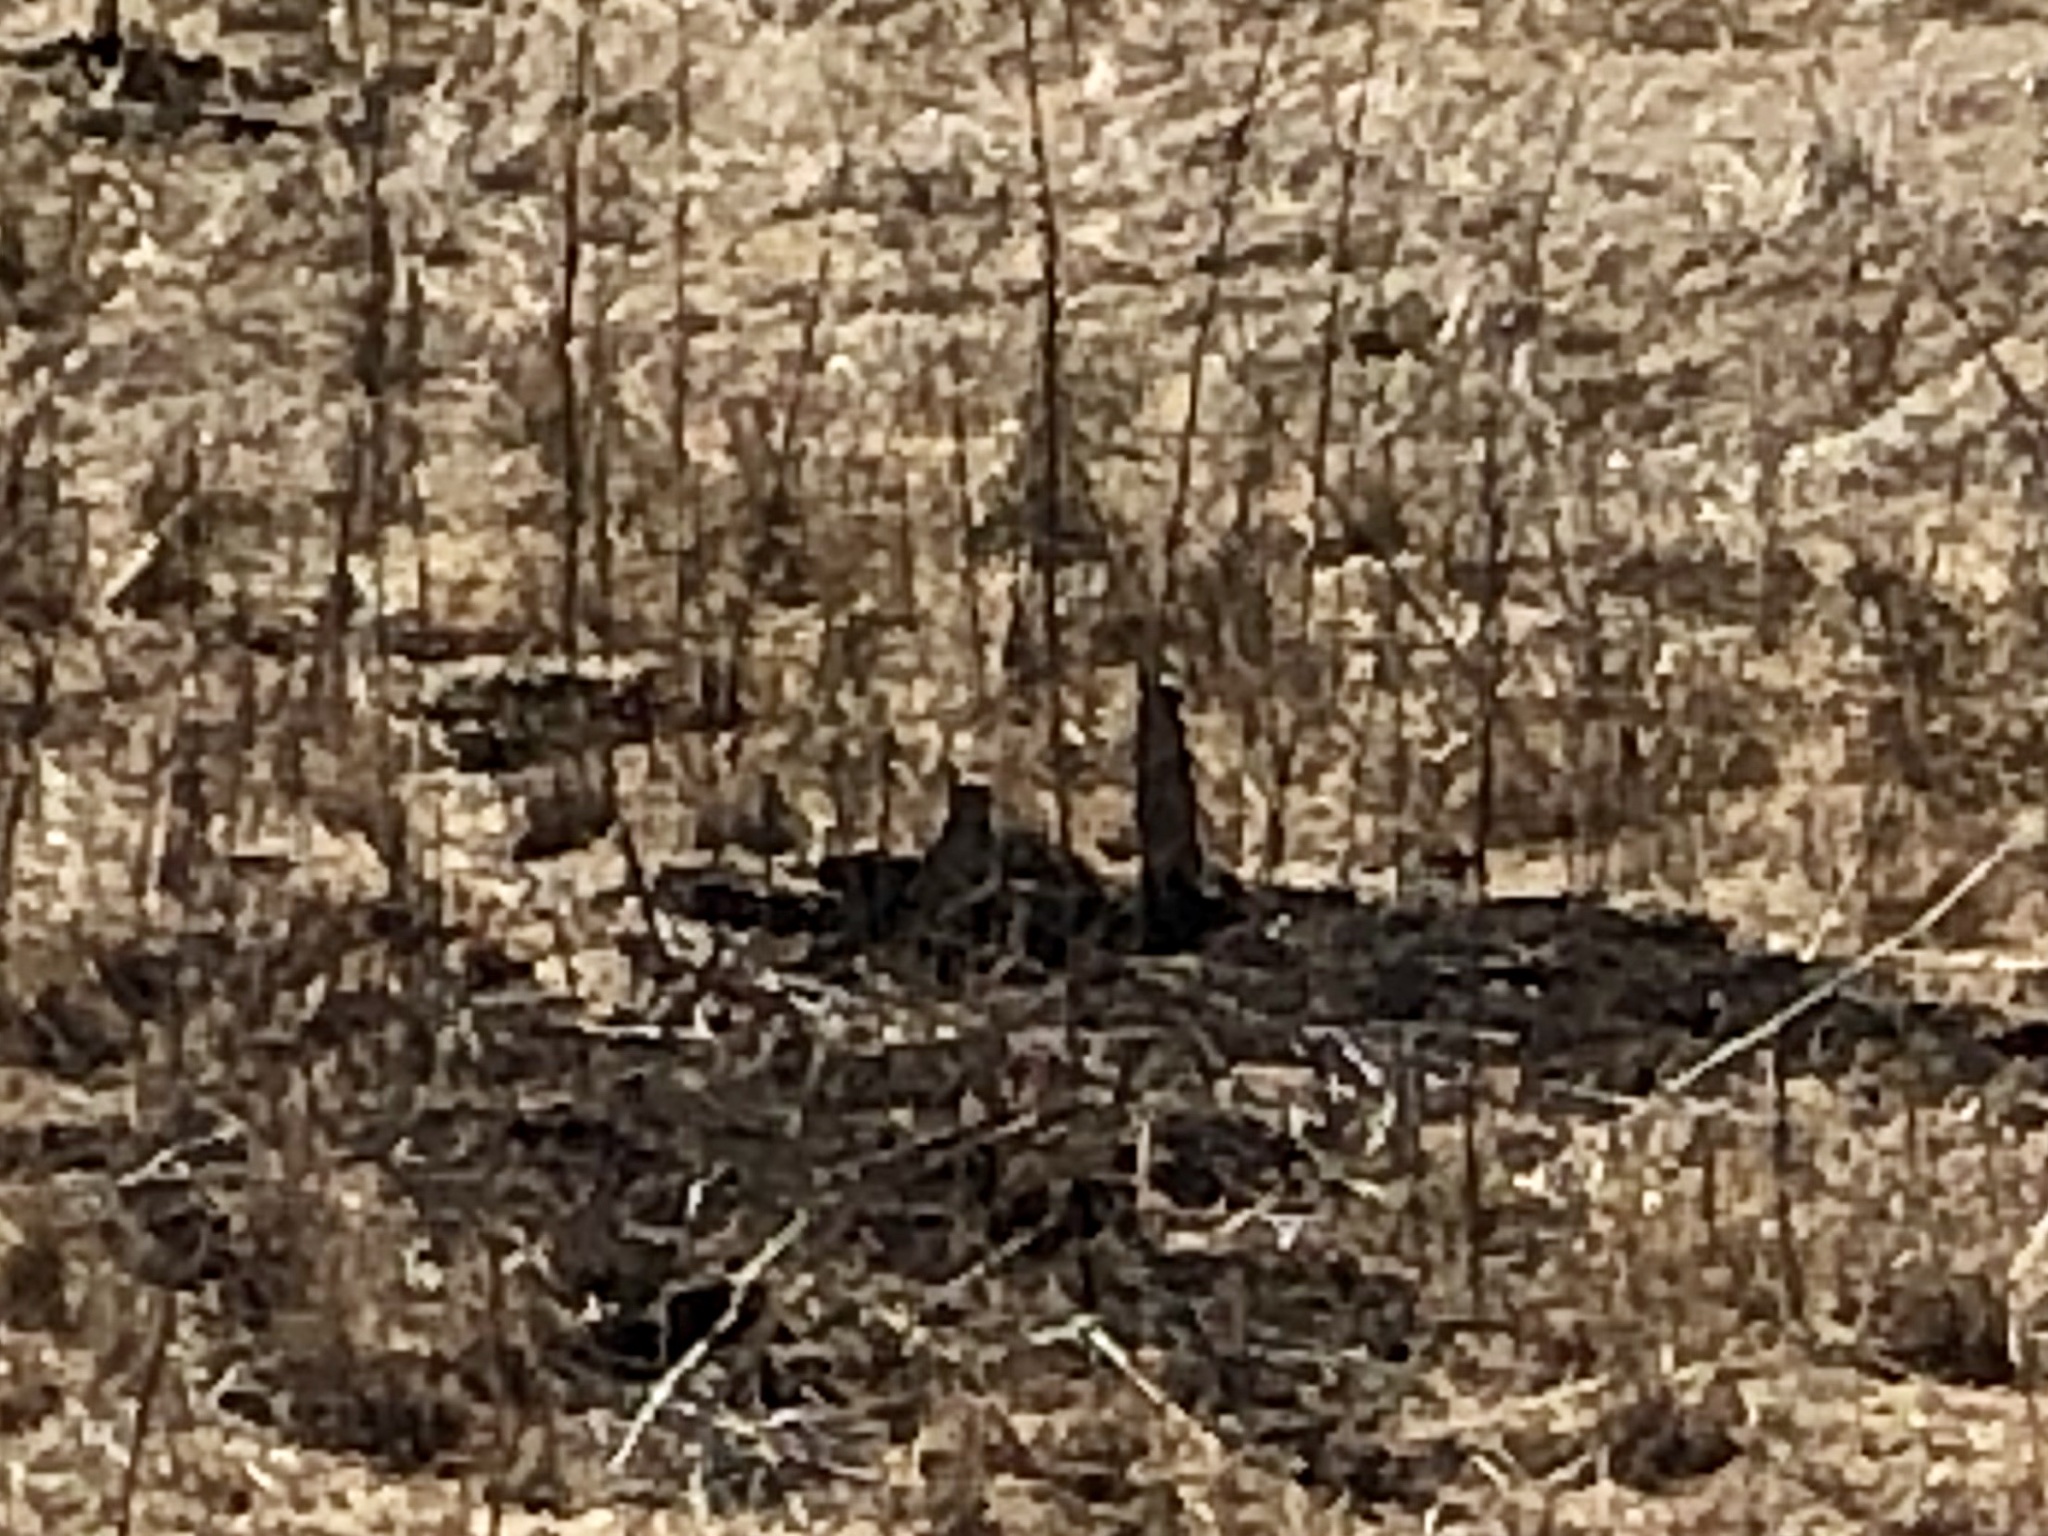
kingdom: Animalia
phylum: Chordata
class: Mammalia
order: Rodentia
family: Sciuridae
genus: Otospermophilus
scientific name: Otospermophilus beecheyi
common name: California ground squirrel
